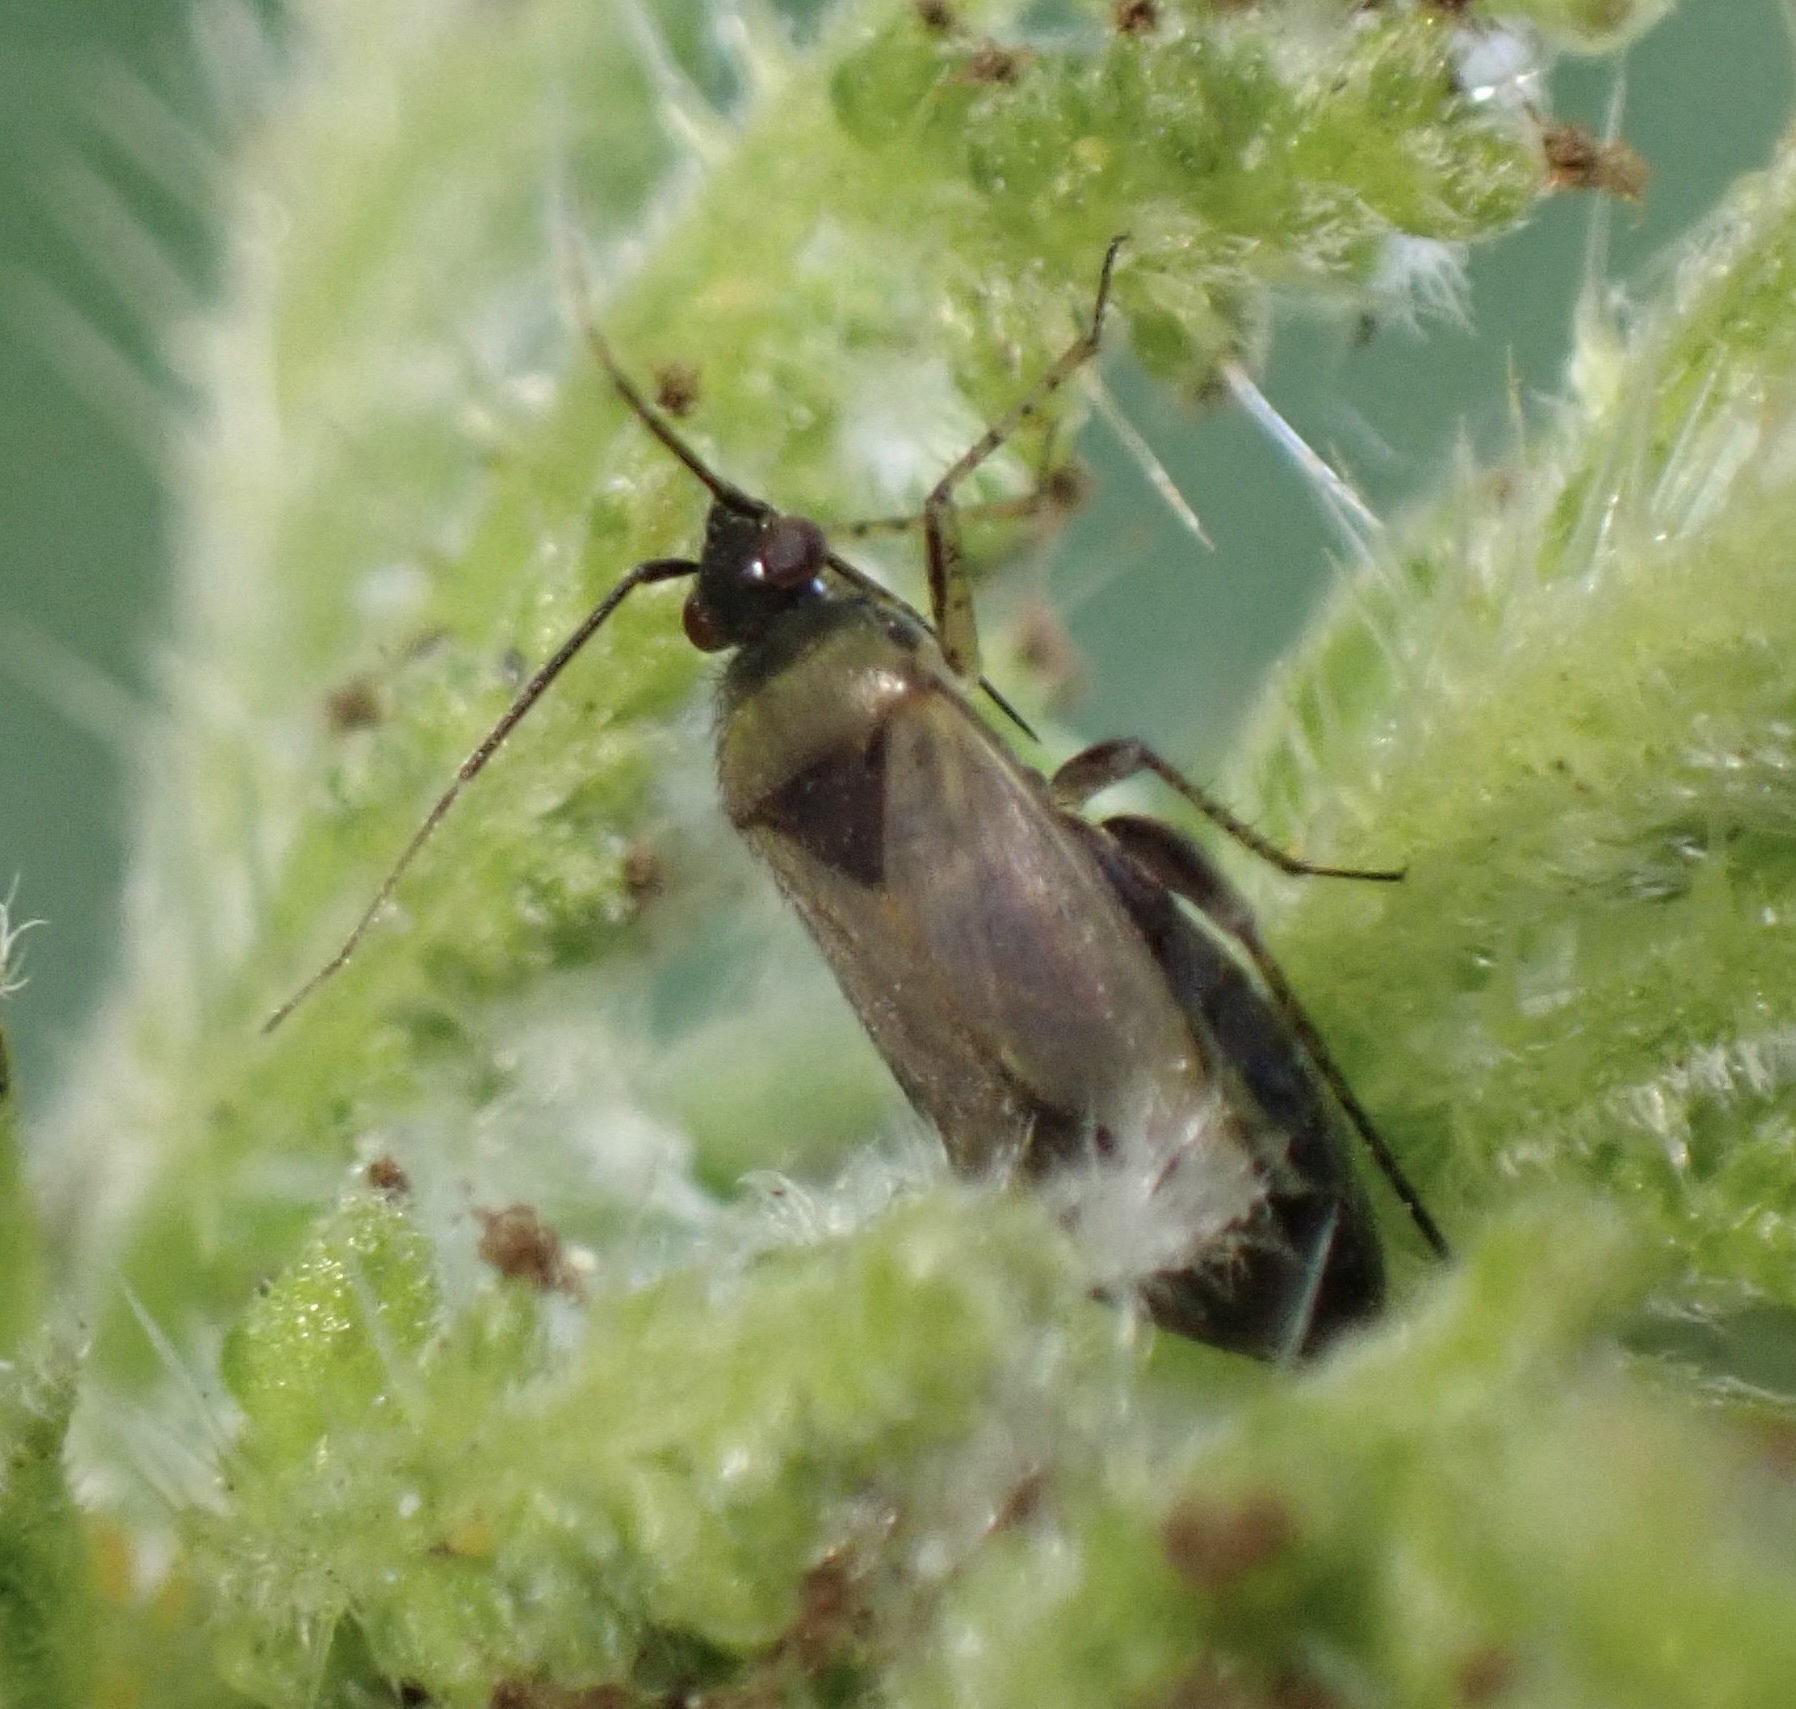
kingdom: Animalia
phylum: Arthropoda
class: Insecta
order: Hemiptera
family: Miridae
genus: Plagiognathus
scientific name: Plagiognathus arbustorum
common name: Plant bug
